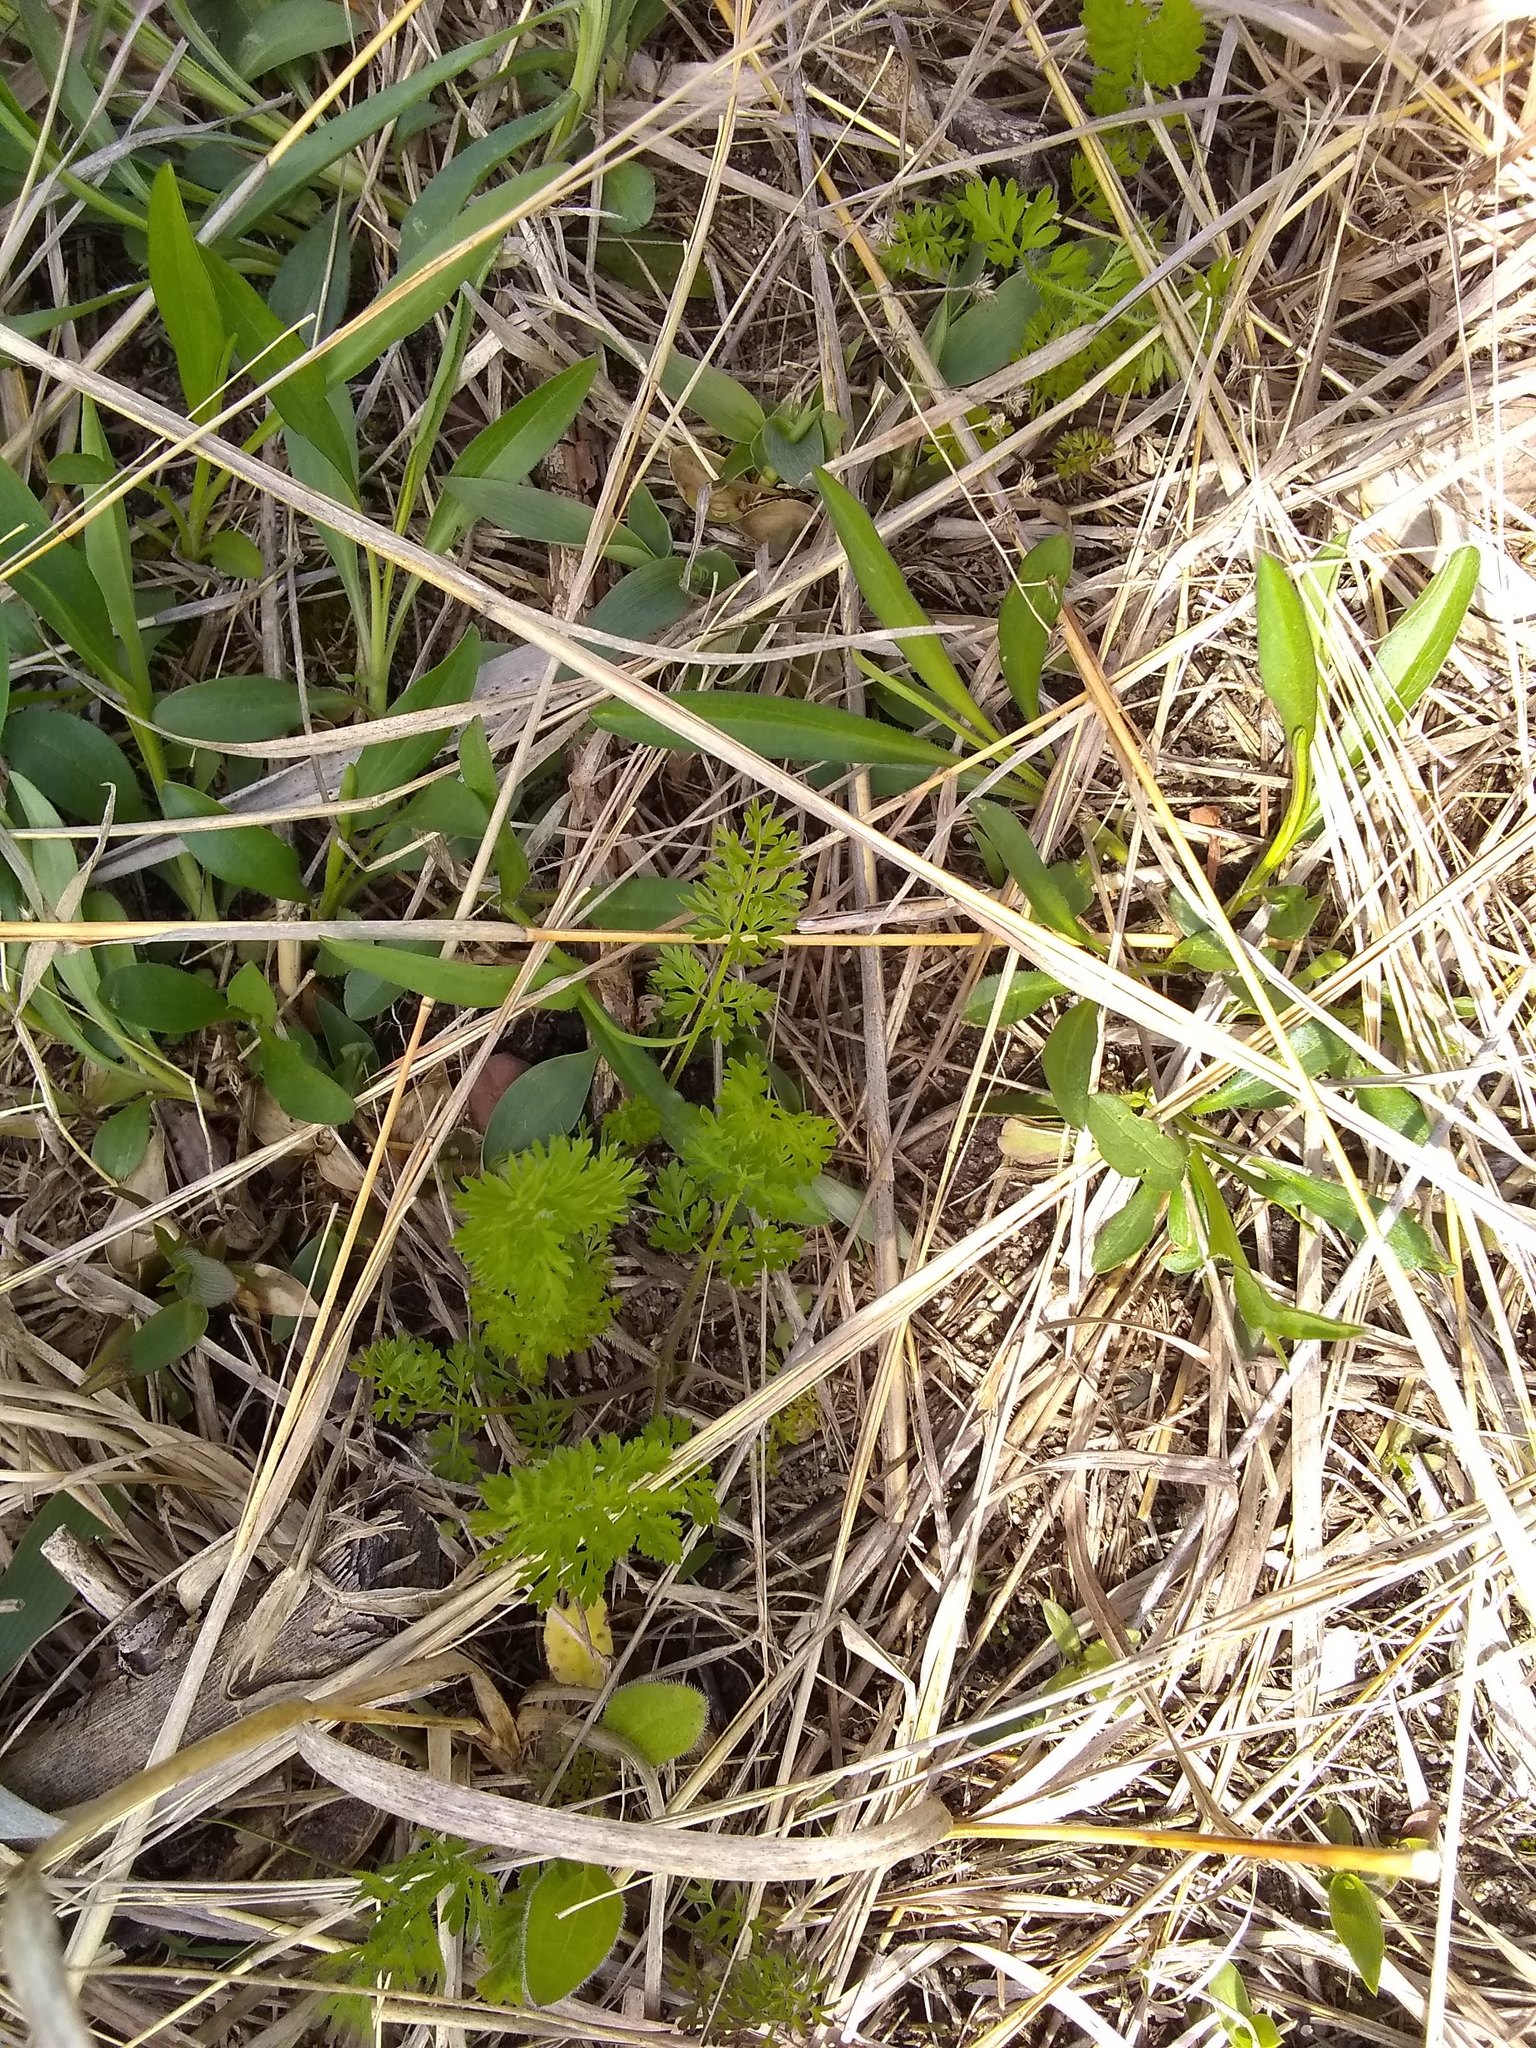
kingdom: Plantae
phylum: Tracheophyta
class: Magnoliopsida
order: Apiales
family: Apiaceae
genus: Daucus
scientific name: Daucus carota
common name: Wild carrot
